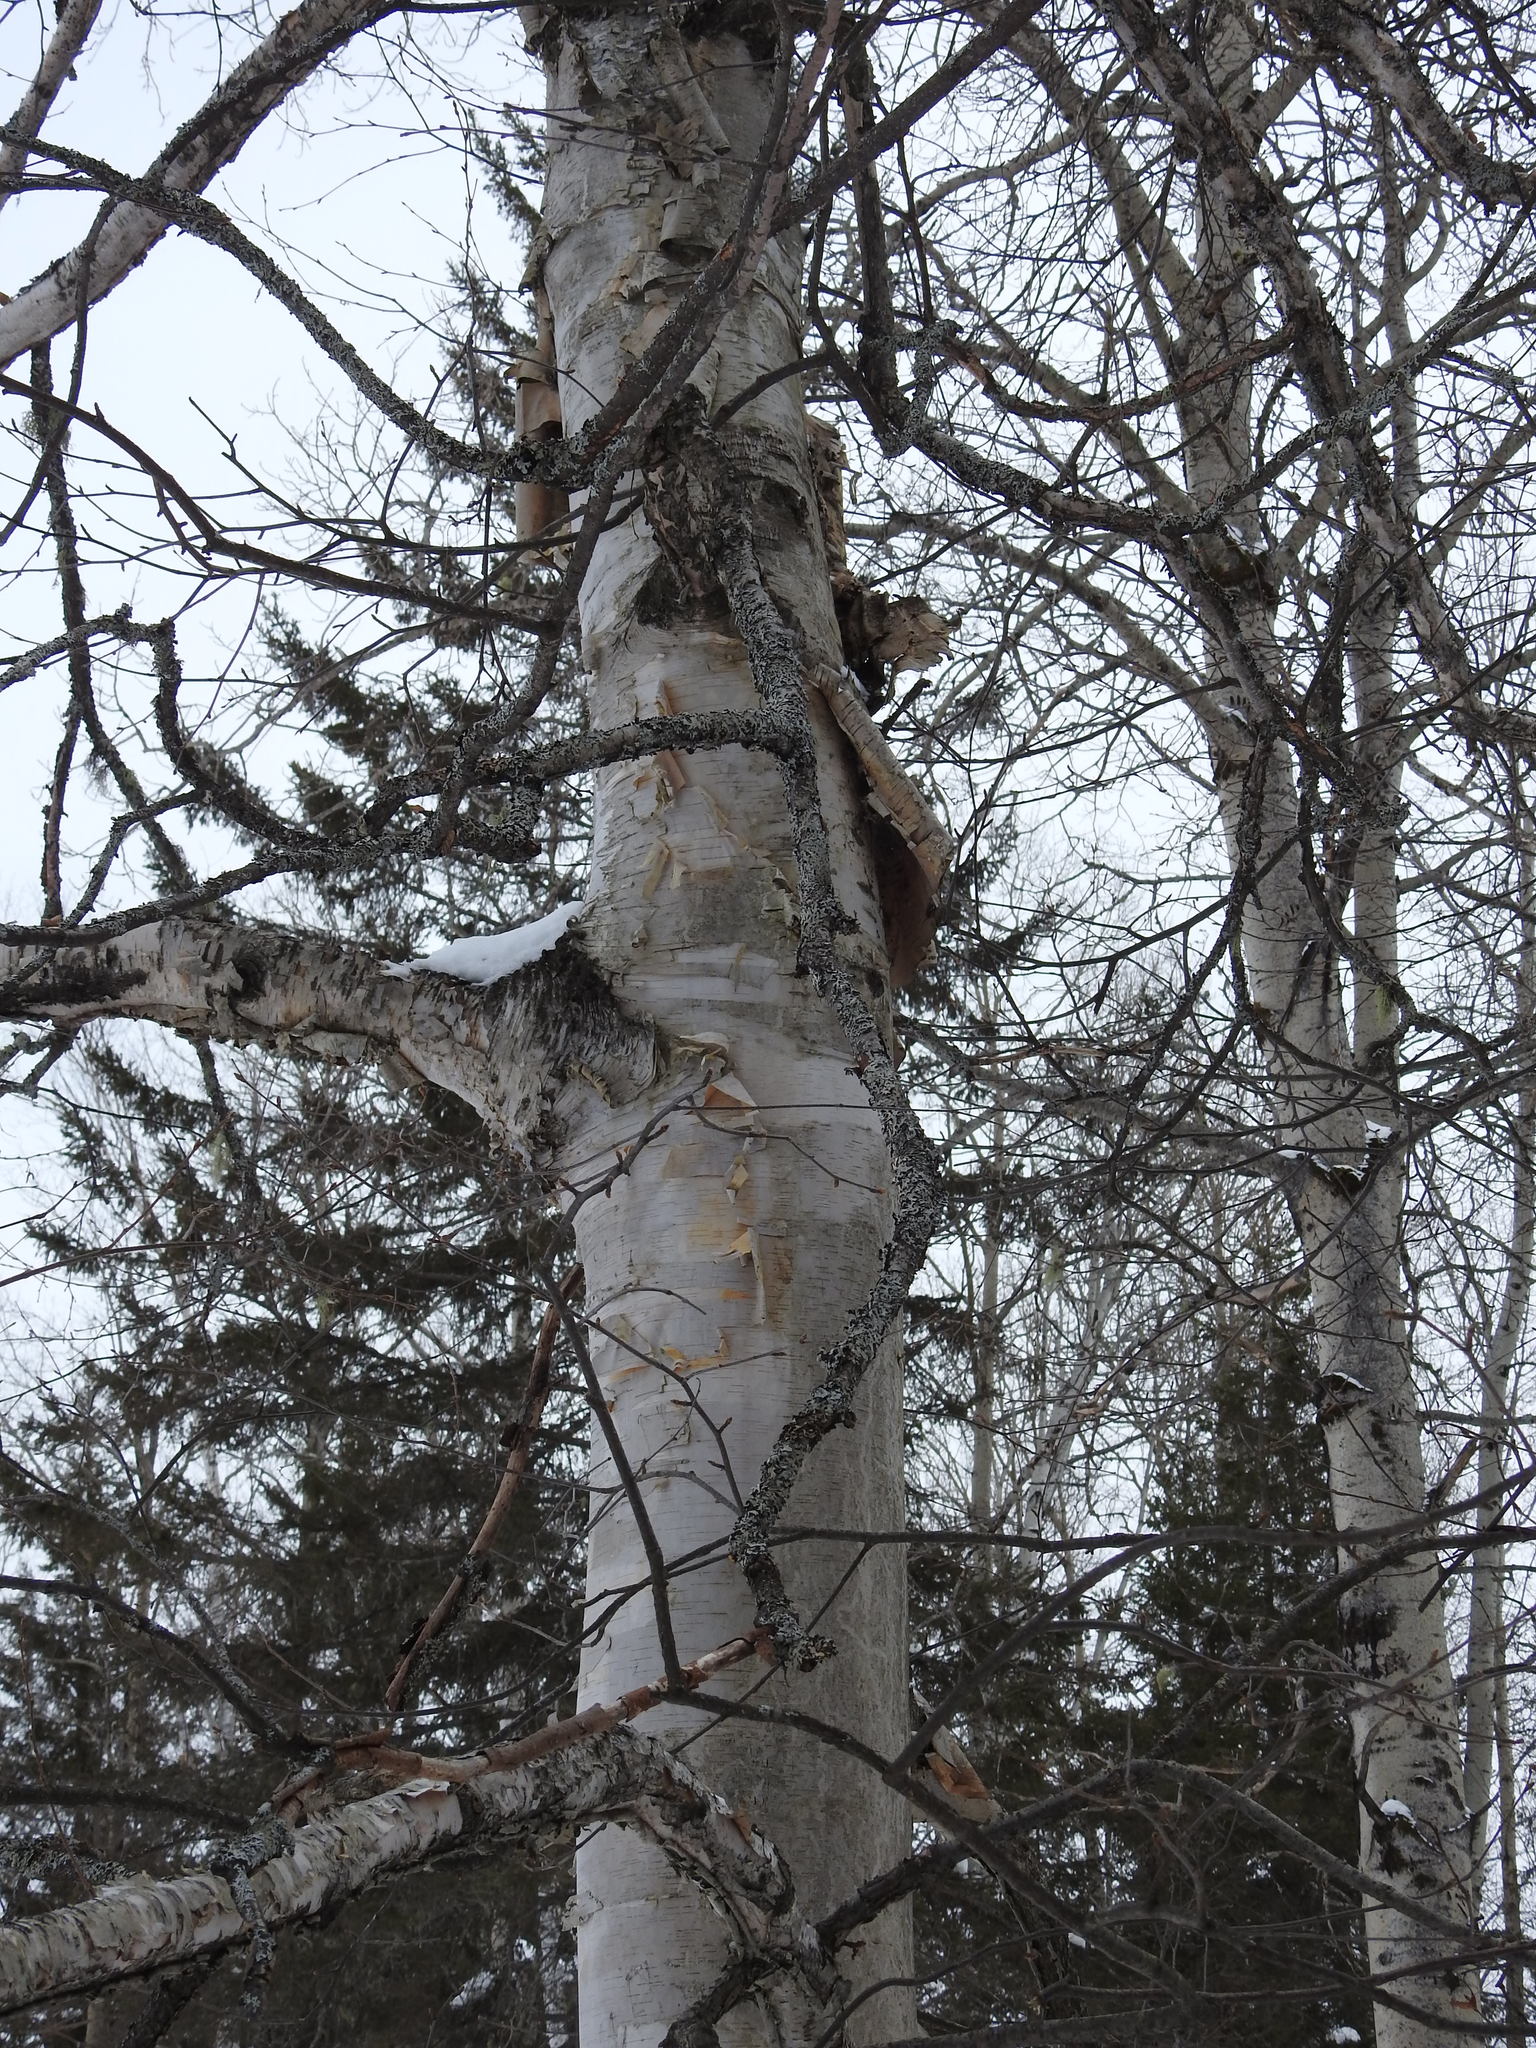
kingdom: Plantae
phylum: Tracheophyta
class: Magnoliopsida
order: Fagales
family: Betulaceae
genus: Betula
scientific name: Betula papyrifera
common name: Paper birch
